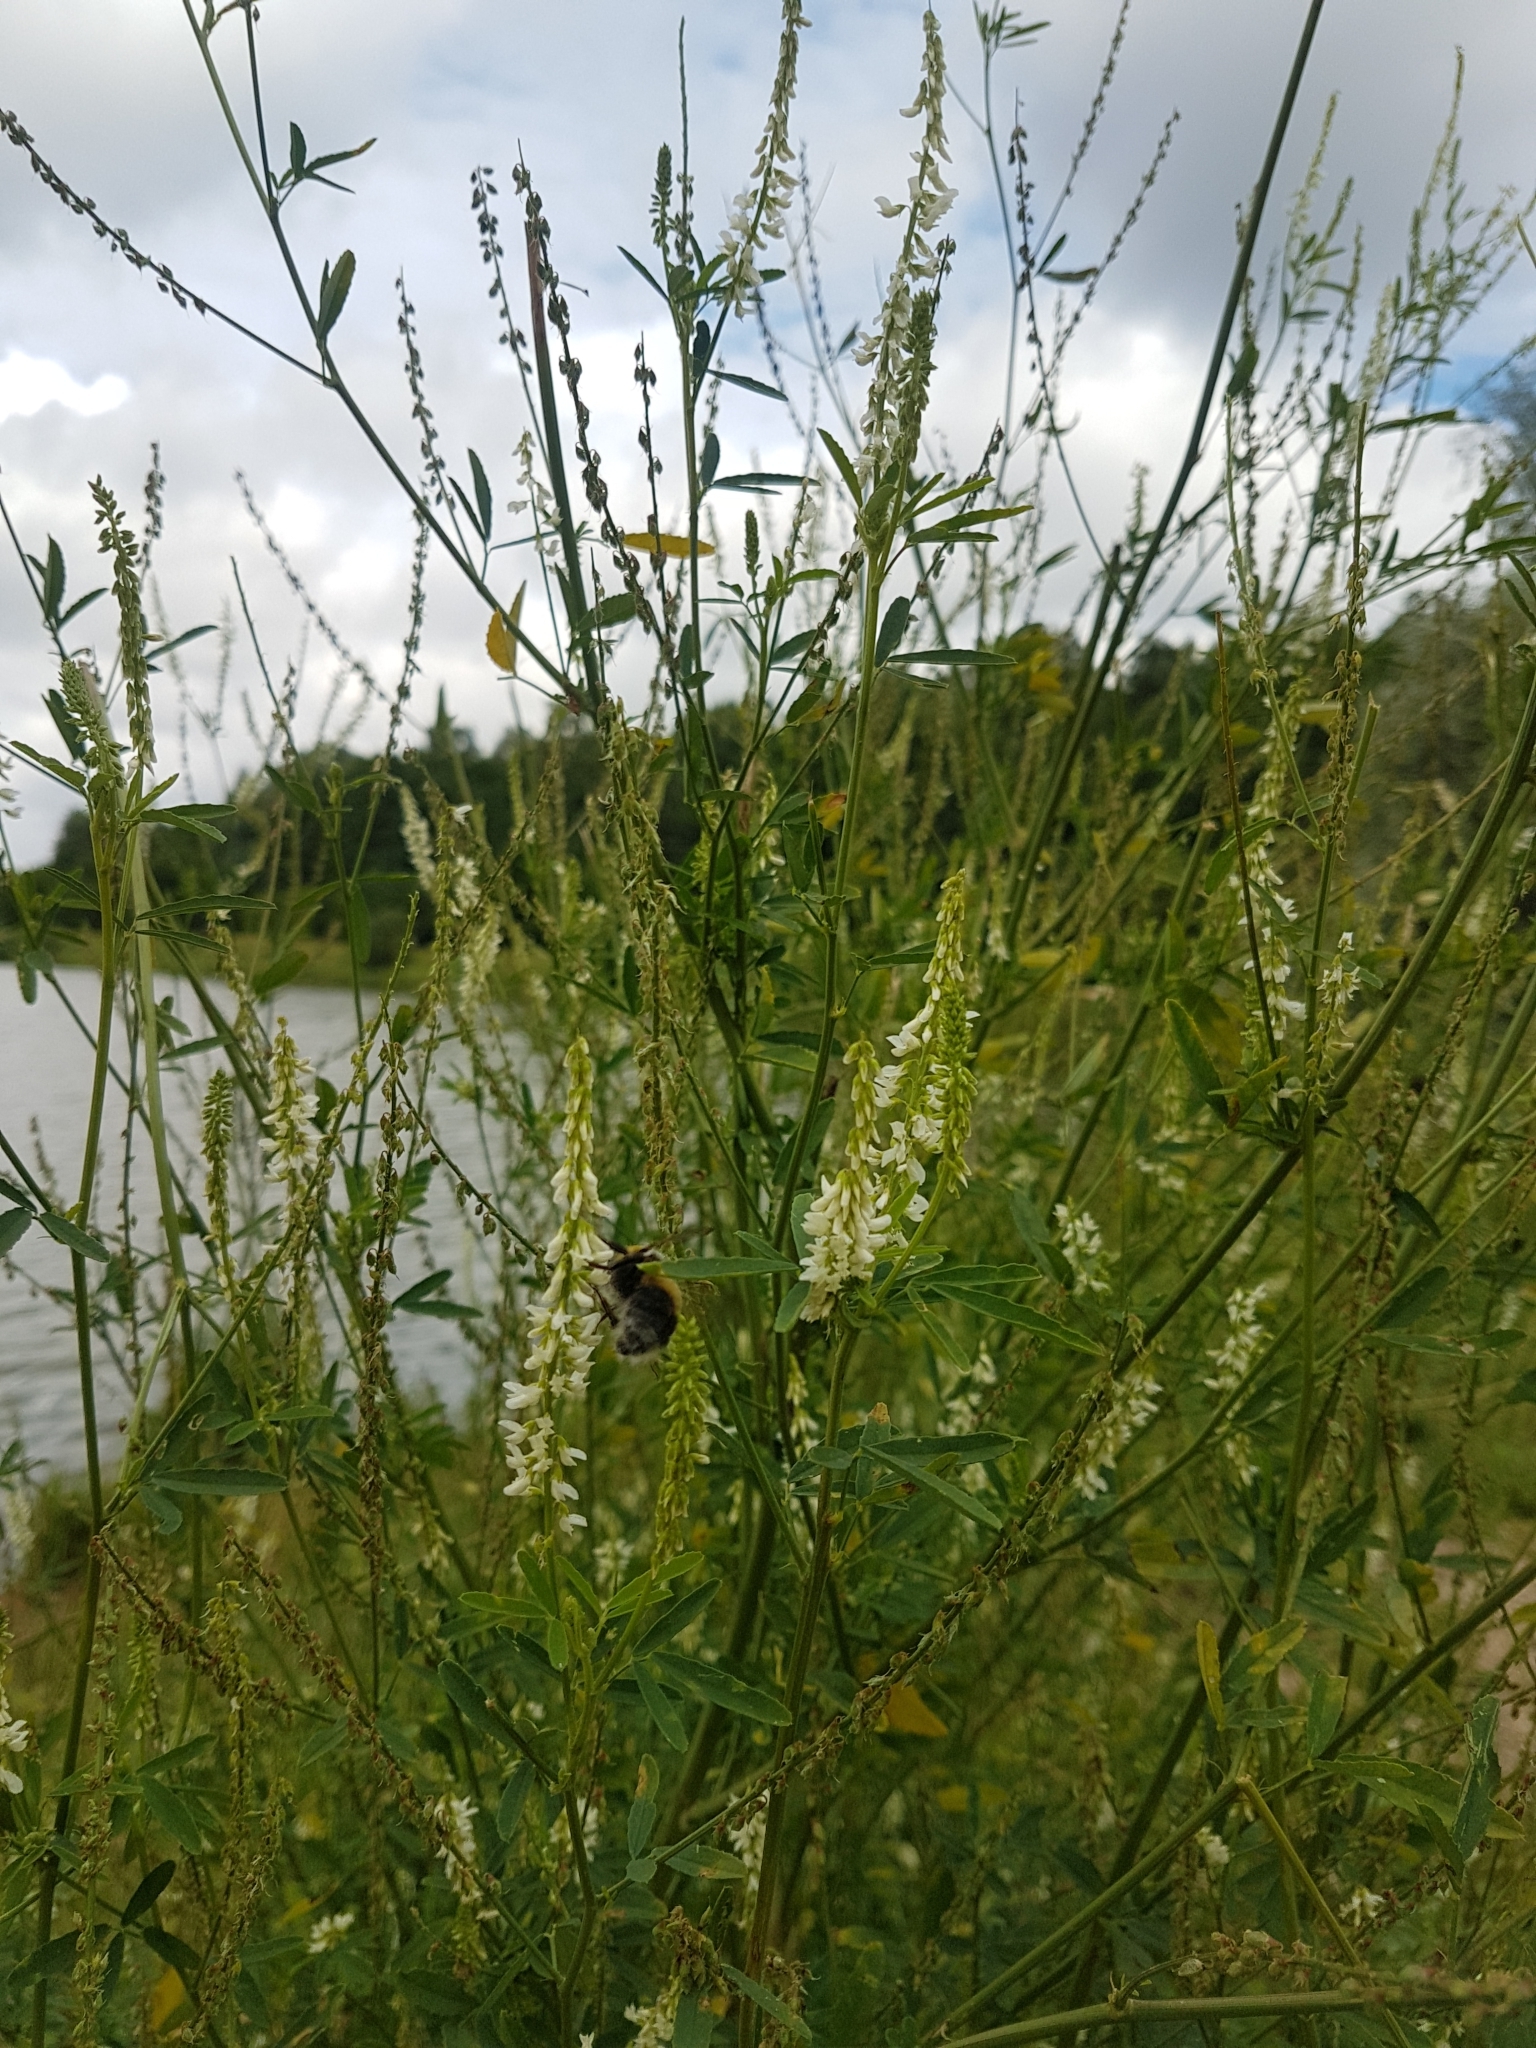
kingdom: Plantae
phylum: Tracheophyta
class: Magnoliopsida
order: Fabales
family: Fabaceae
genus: Melilotus
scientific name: Melilotus albus
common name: White melilot
